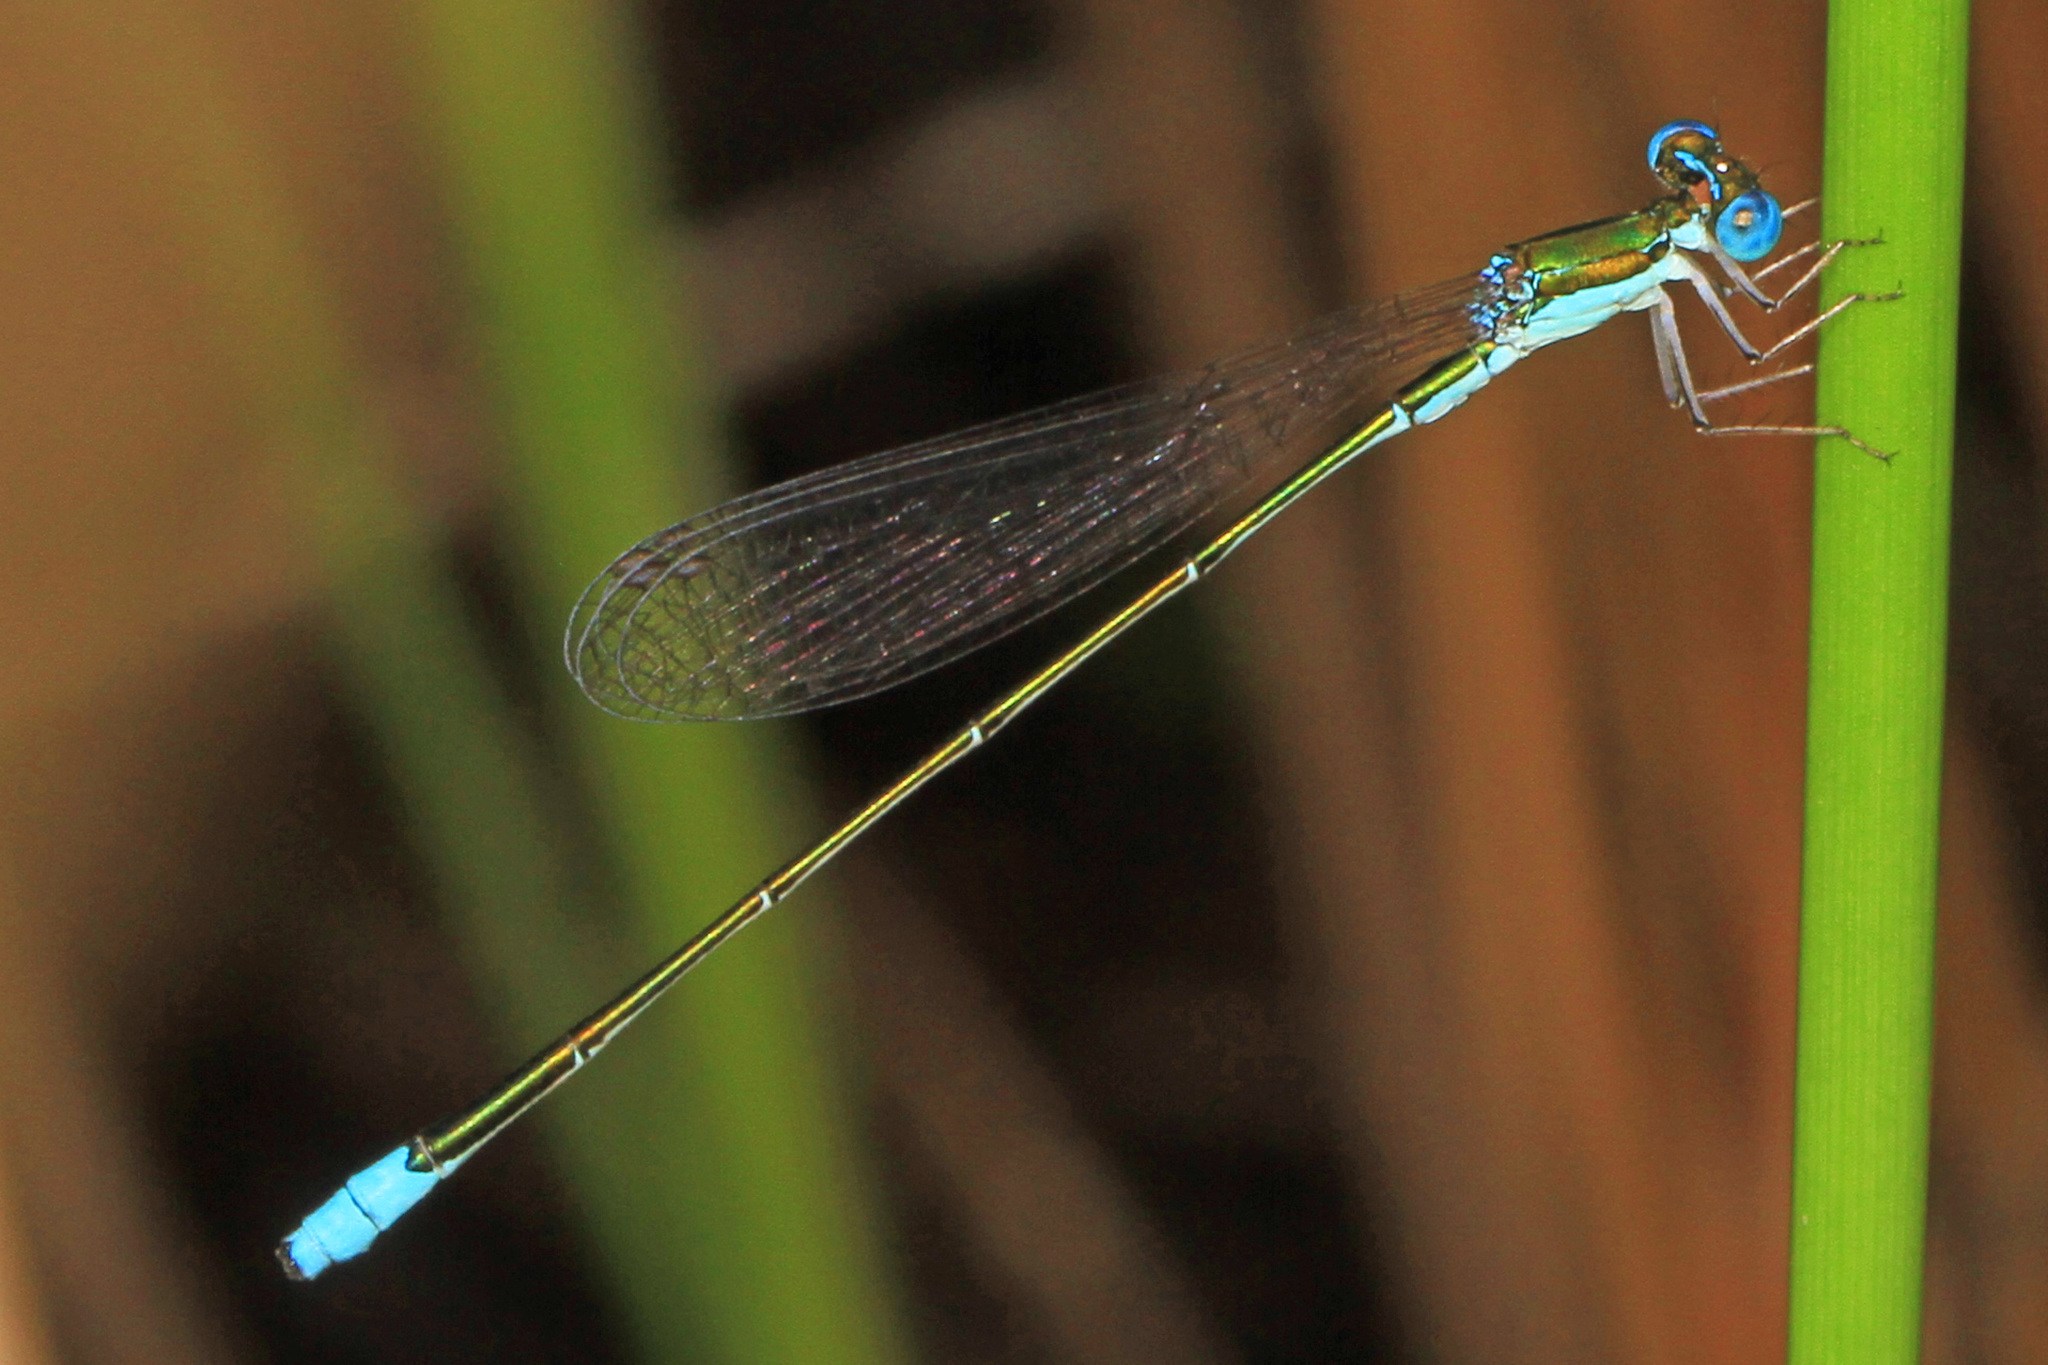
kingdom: Animalia
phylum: Arthropoda
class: Insecta
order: Odonata
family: Coenagrionidae
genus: Nehalennia
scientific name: Nehalennia gracilis
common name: Sphagnum sprite
